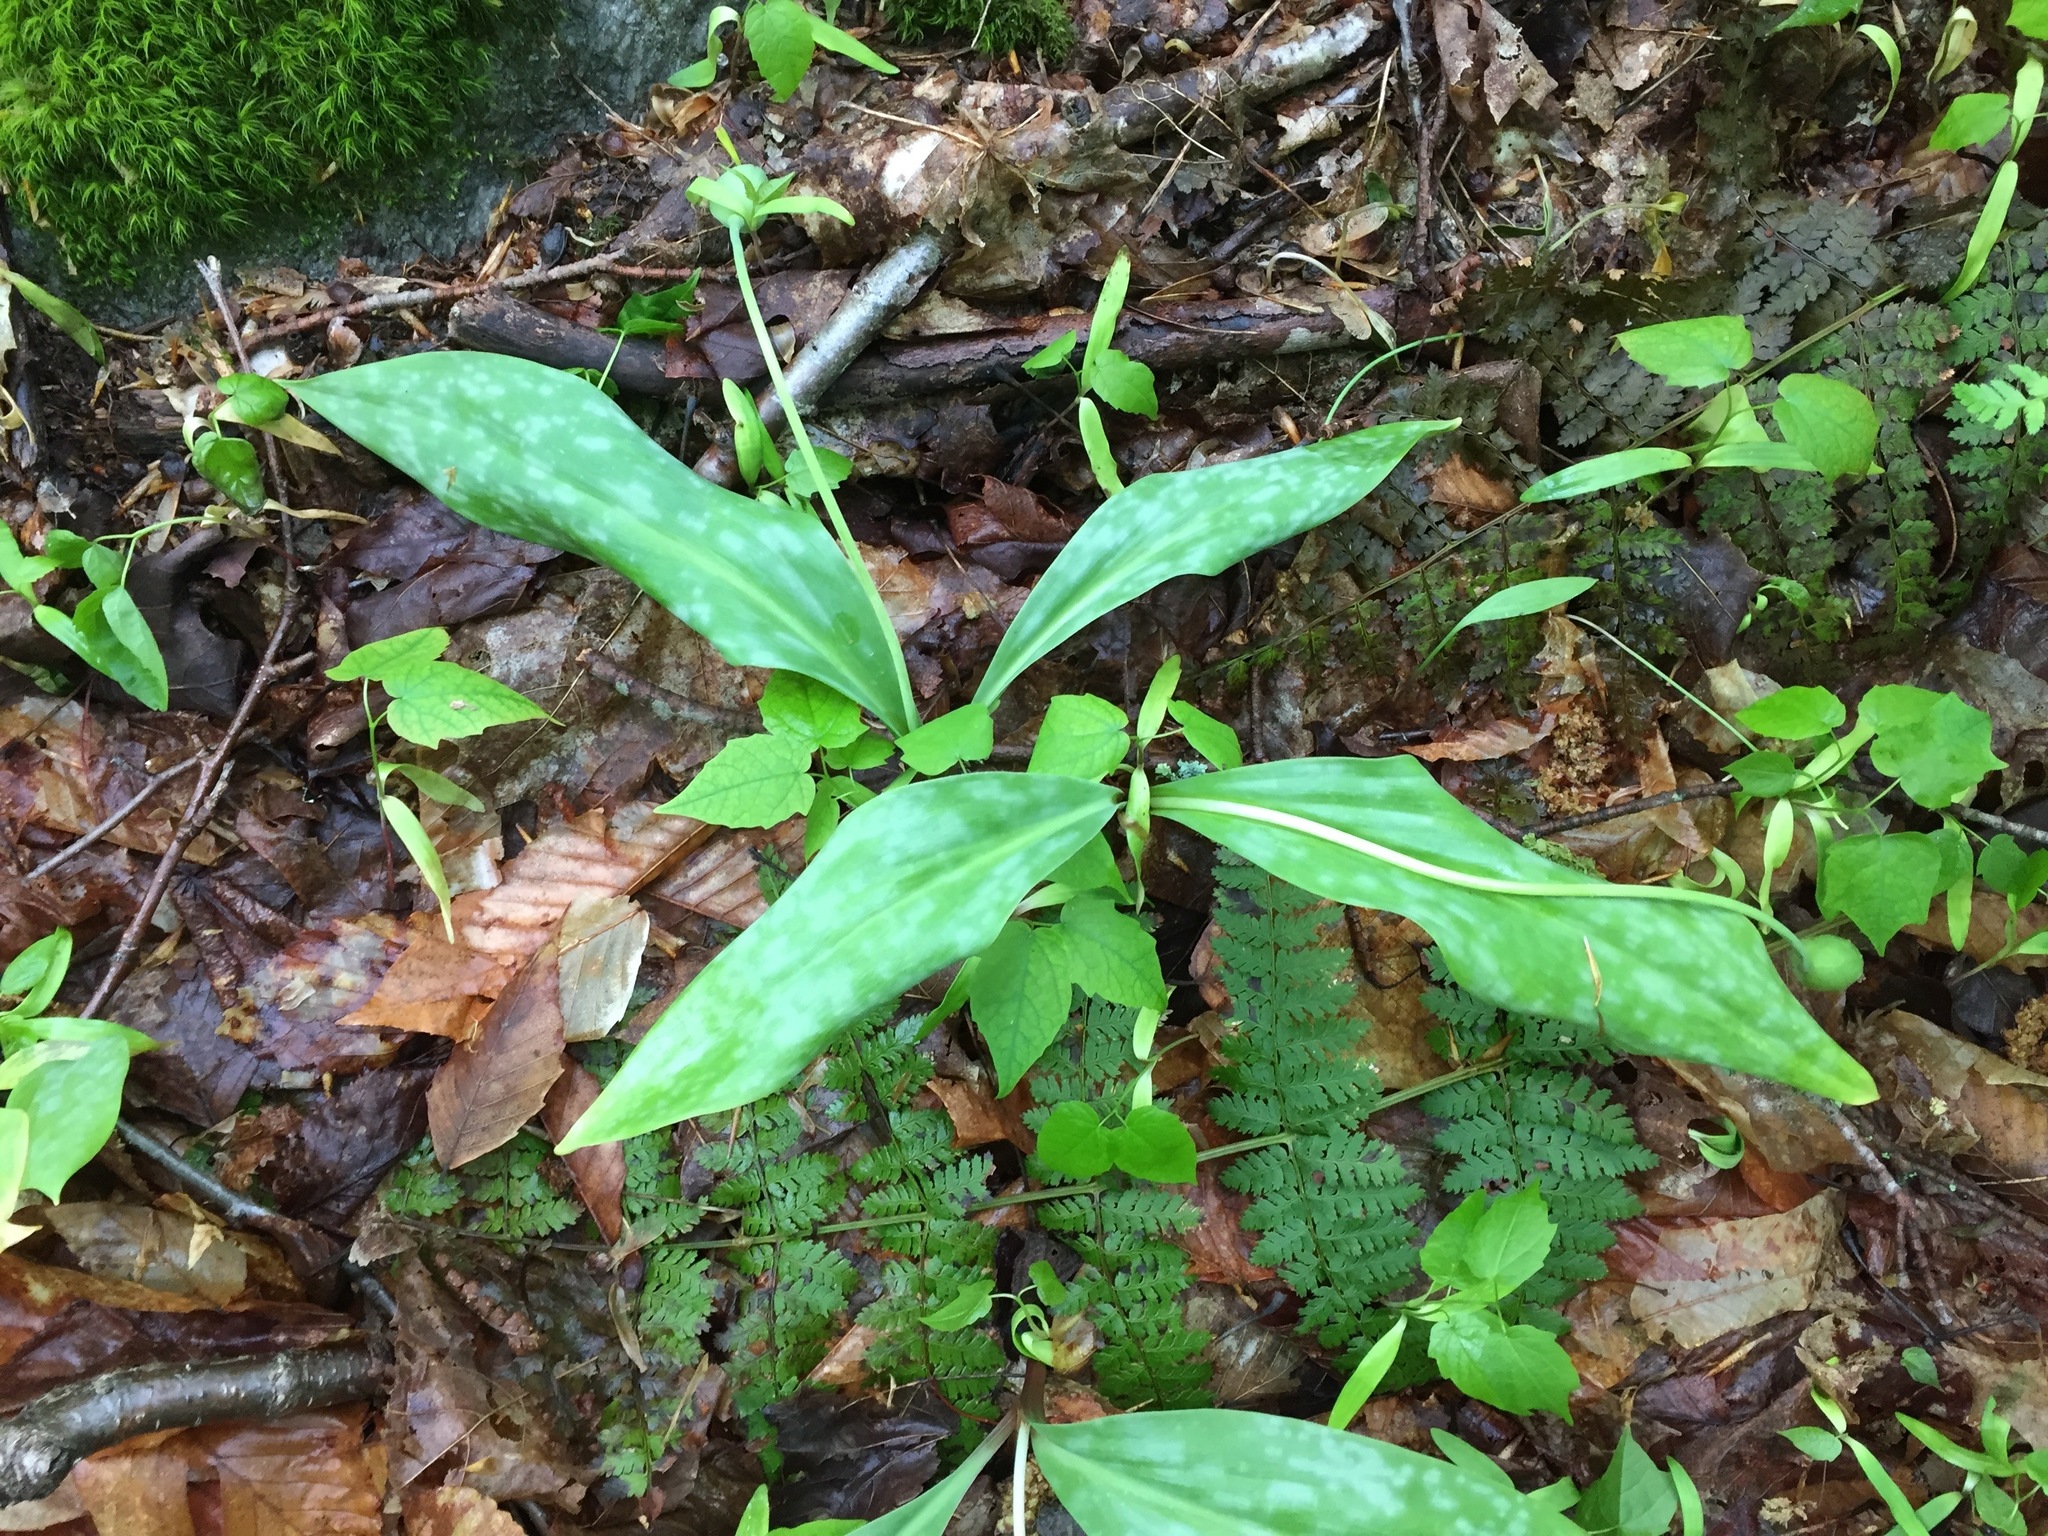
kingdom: Plantae
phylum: Tracheophyta
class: Liliopsida
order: Liliales
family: Liliaceae
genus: Erythronium
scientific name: Erythronium americanum
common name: Yellow adder's-tongue
